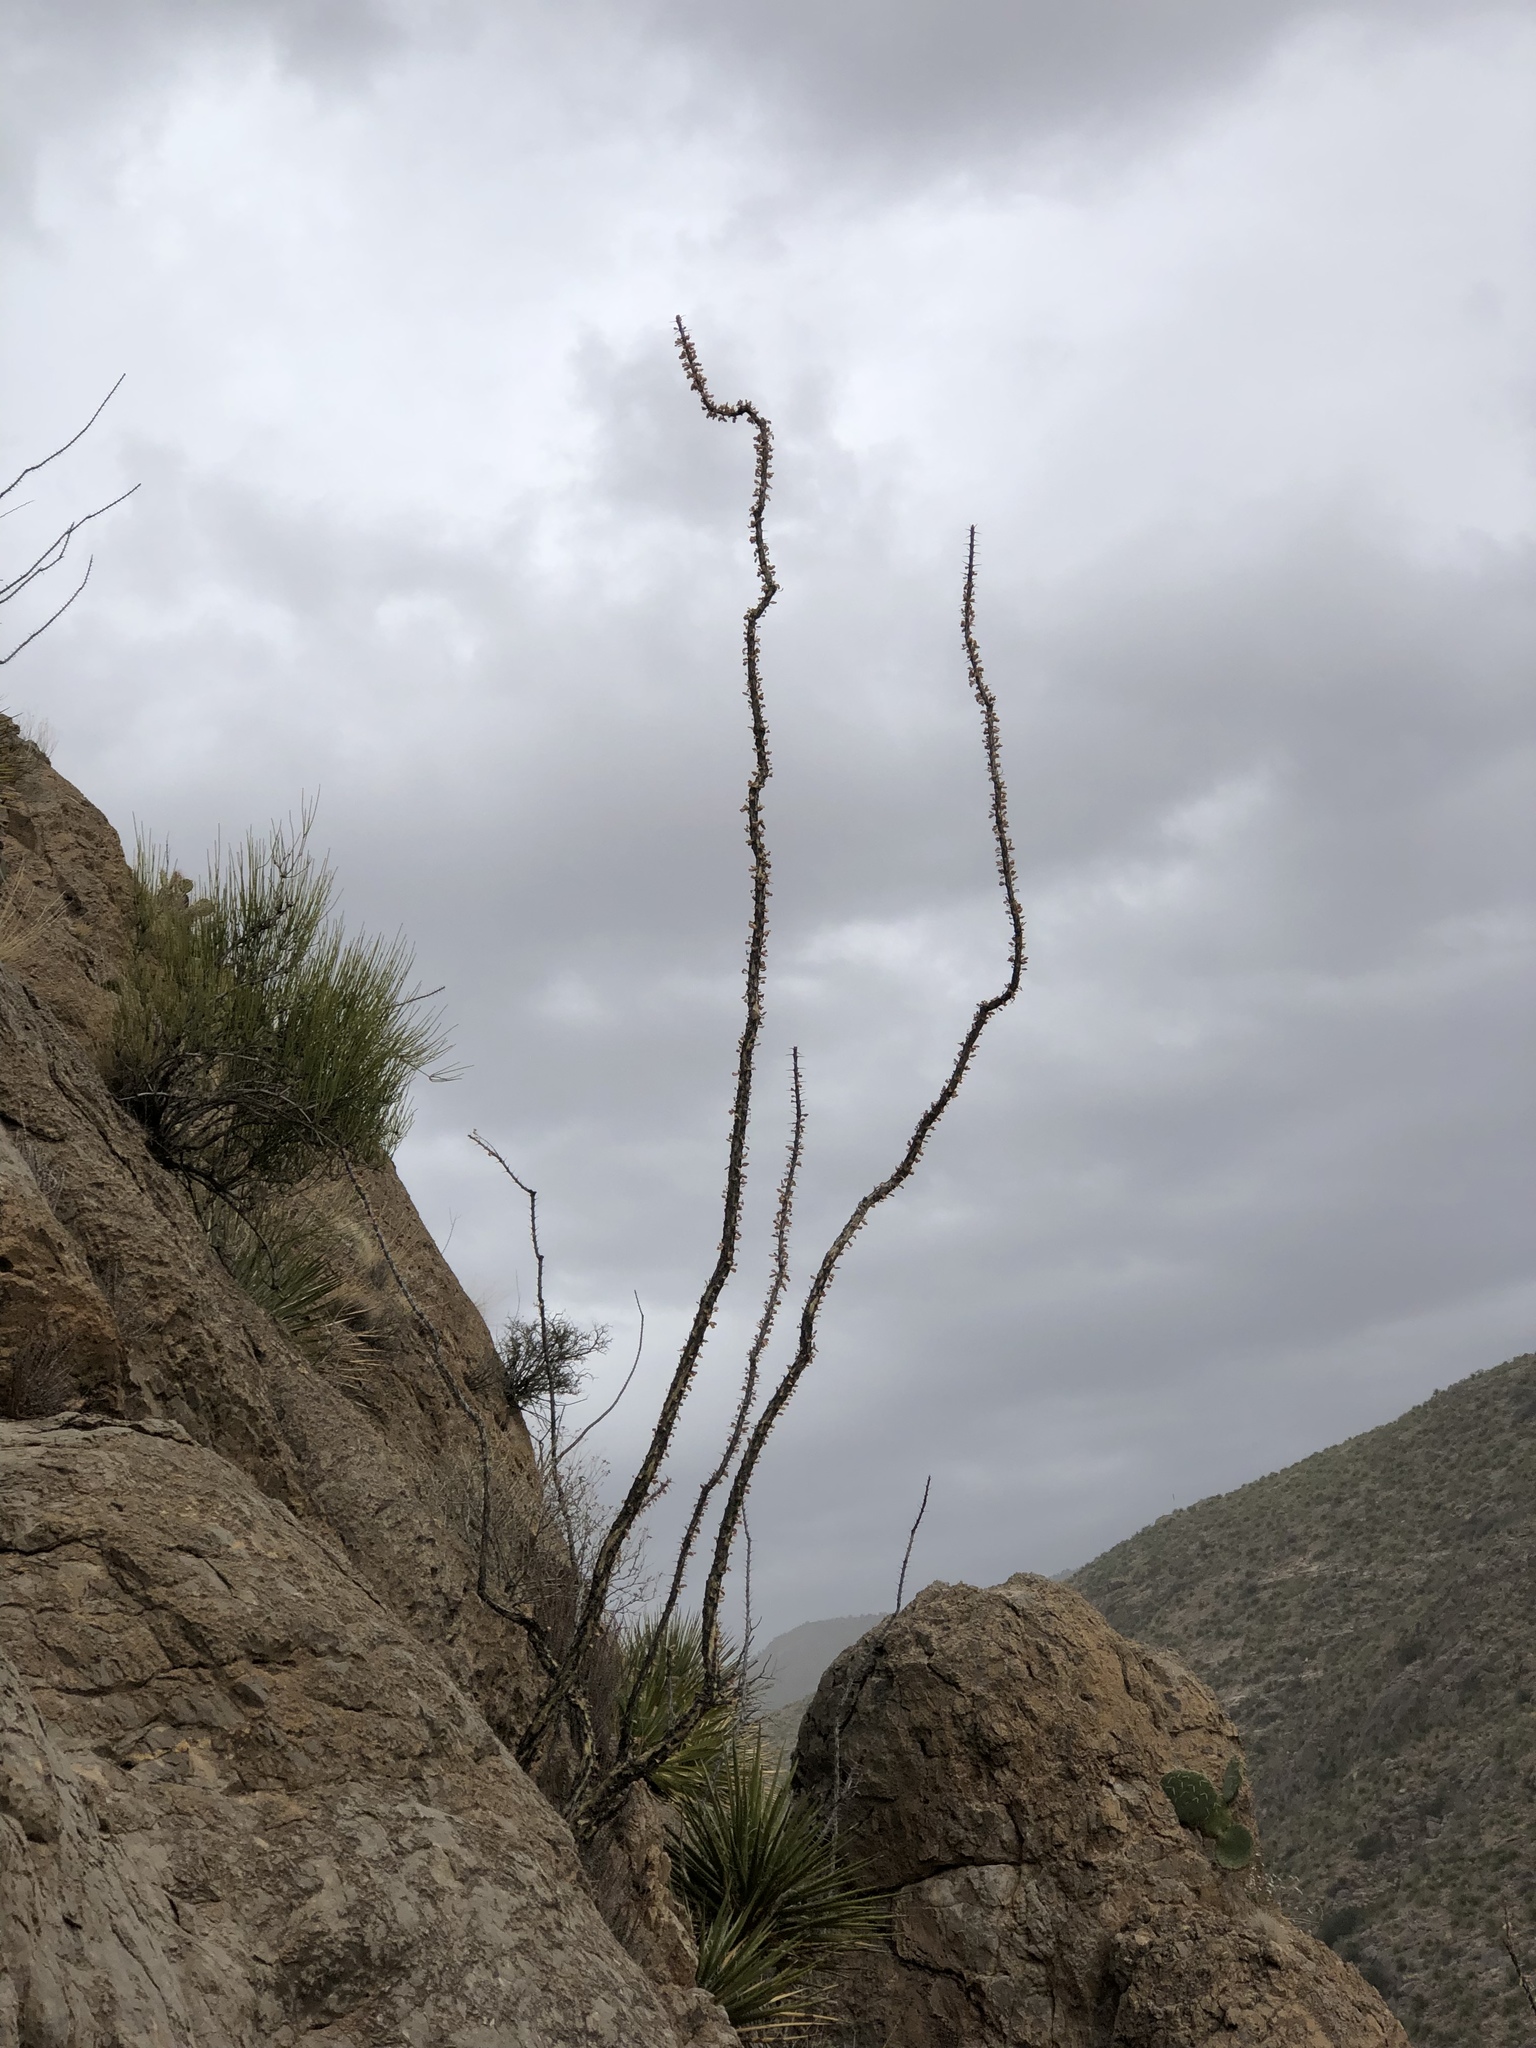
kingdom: Plantae
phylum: Tracheophyta
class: Magnoliopsida
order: Ericales
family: Fouquieriaceae
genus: Fouquieria
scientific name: Fouquieria splendens
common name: Vine-cactus
